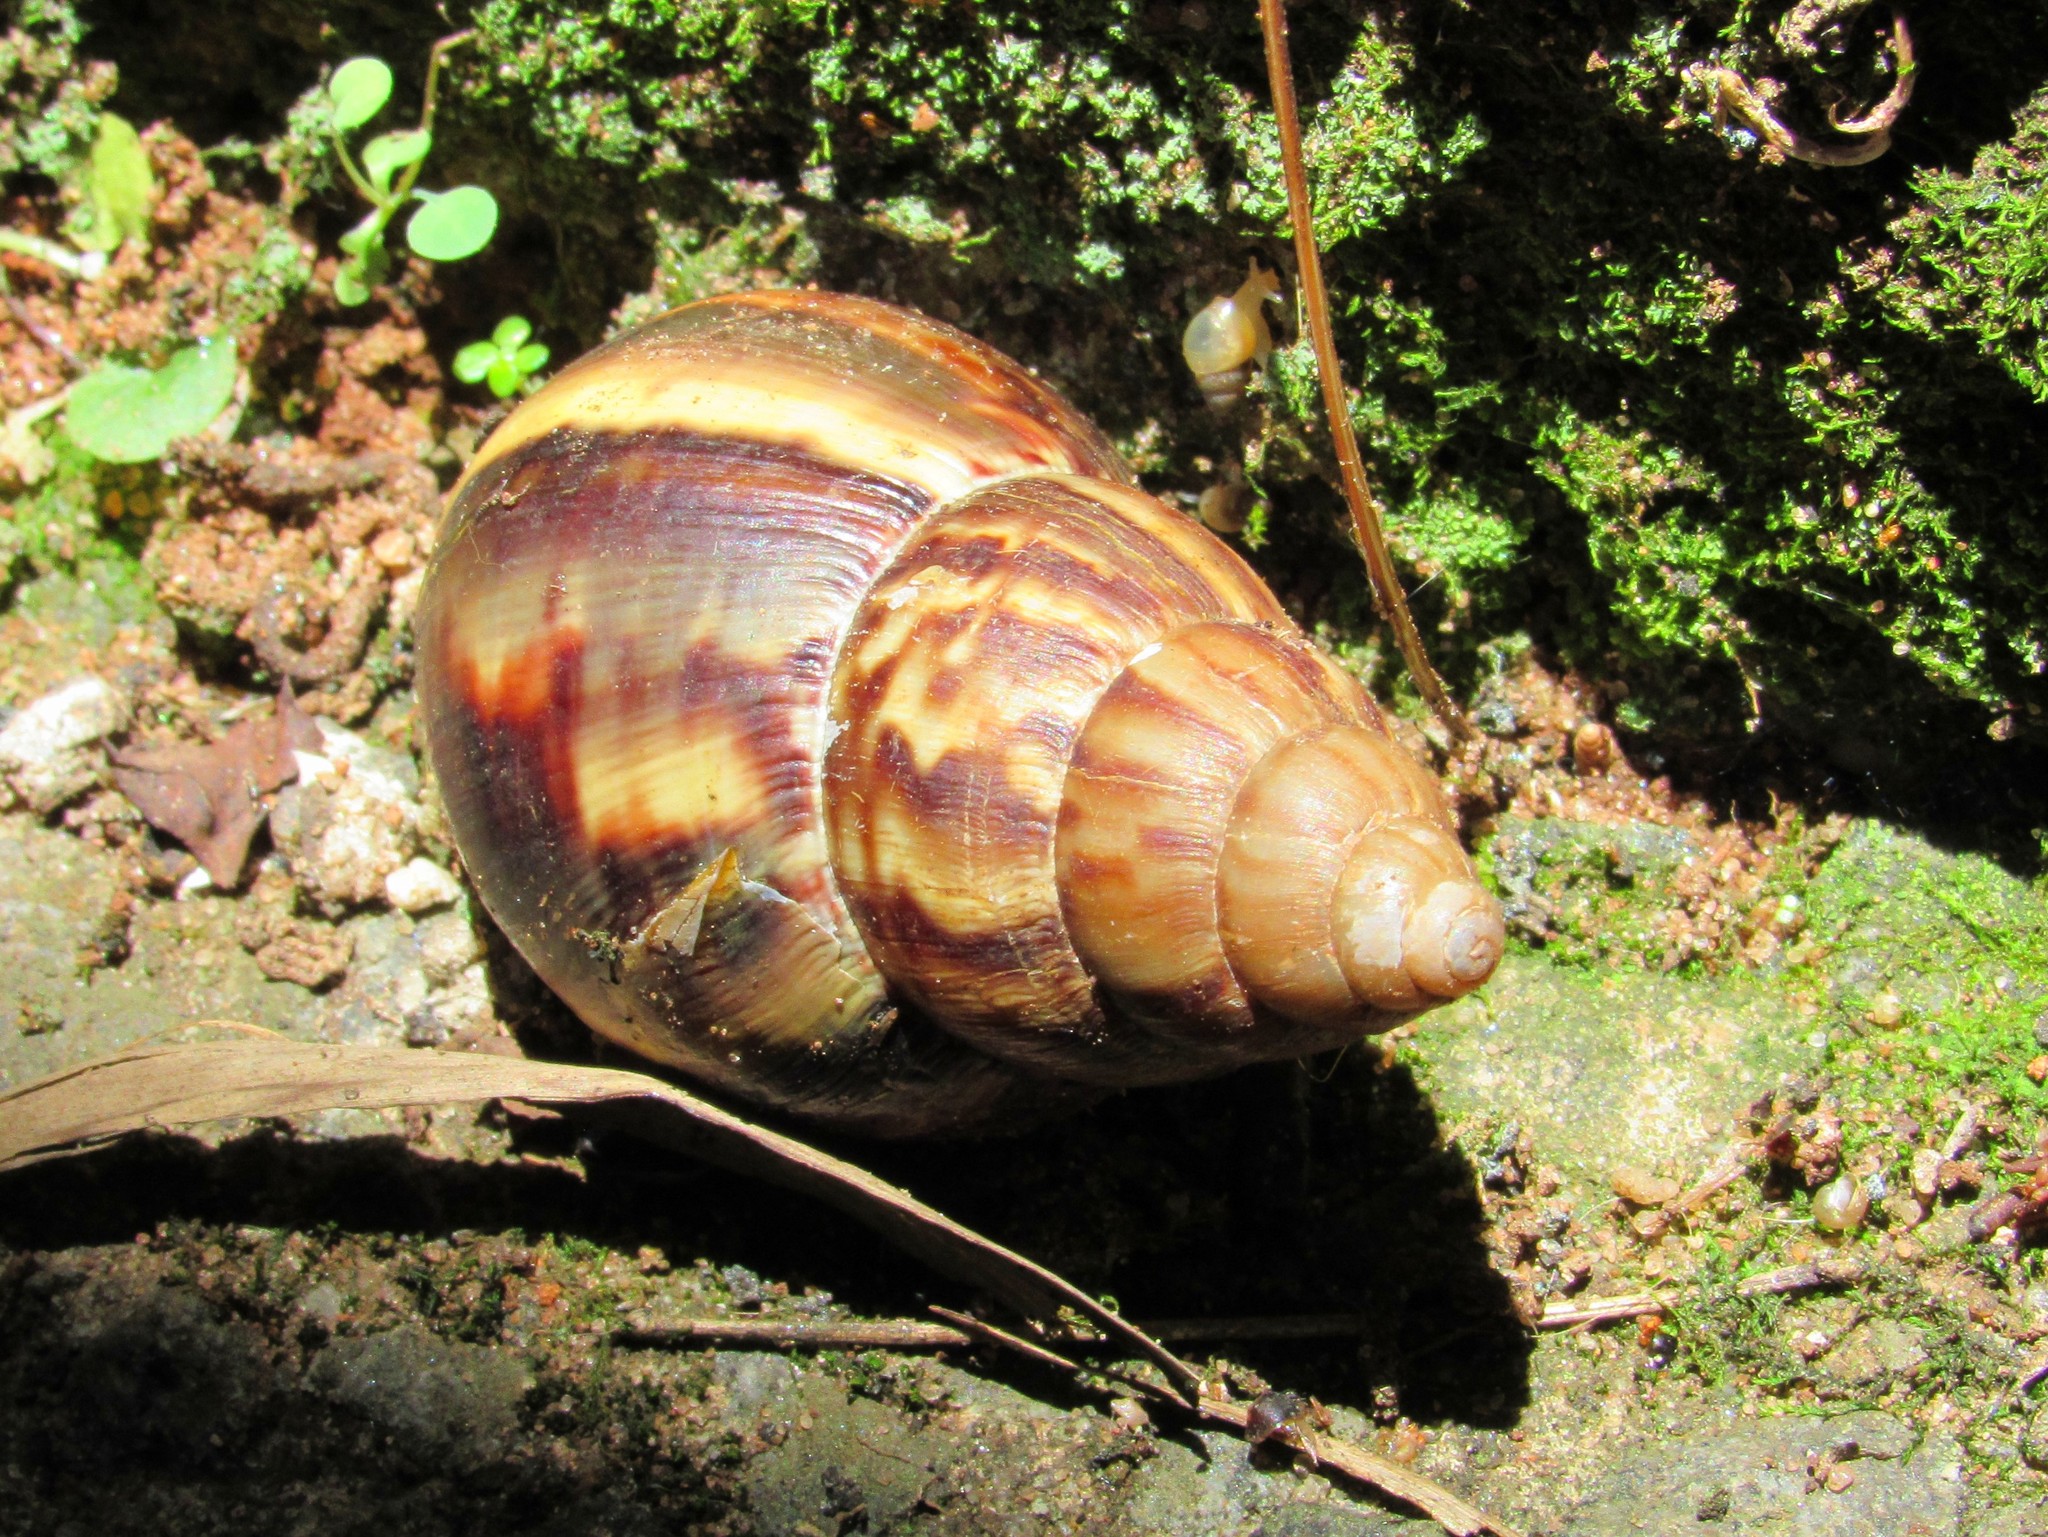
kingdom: Animalia
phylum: Mollusca
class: Gastropoda
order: Stylommatophora
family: Achatinidae
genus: Lissachatina
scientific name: Lissachatina fulica
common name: Giant african snail
